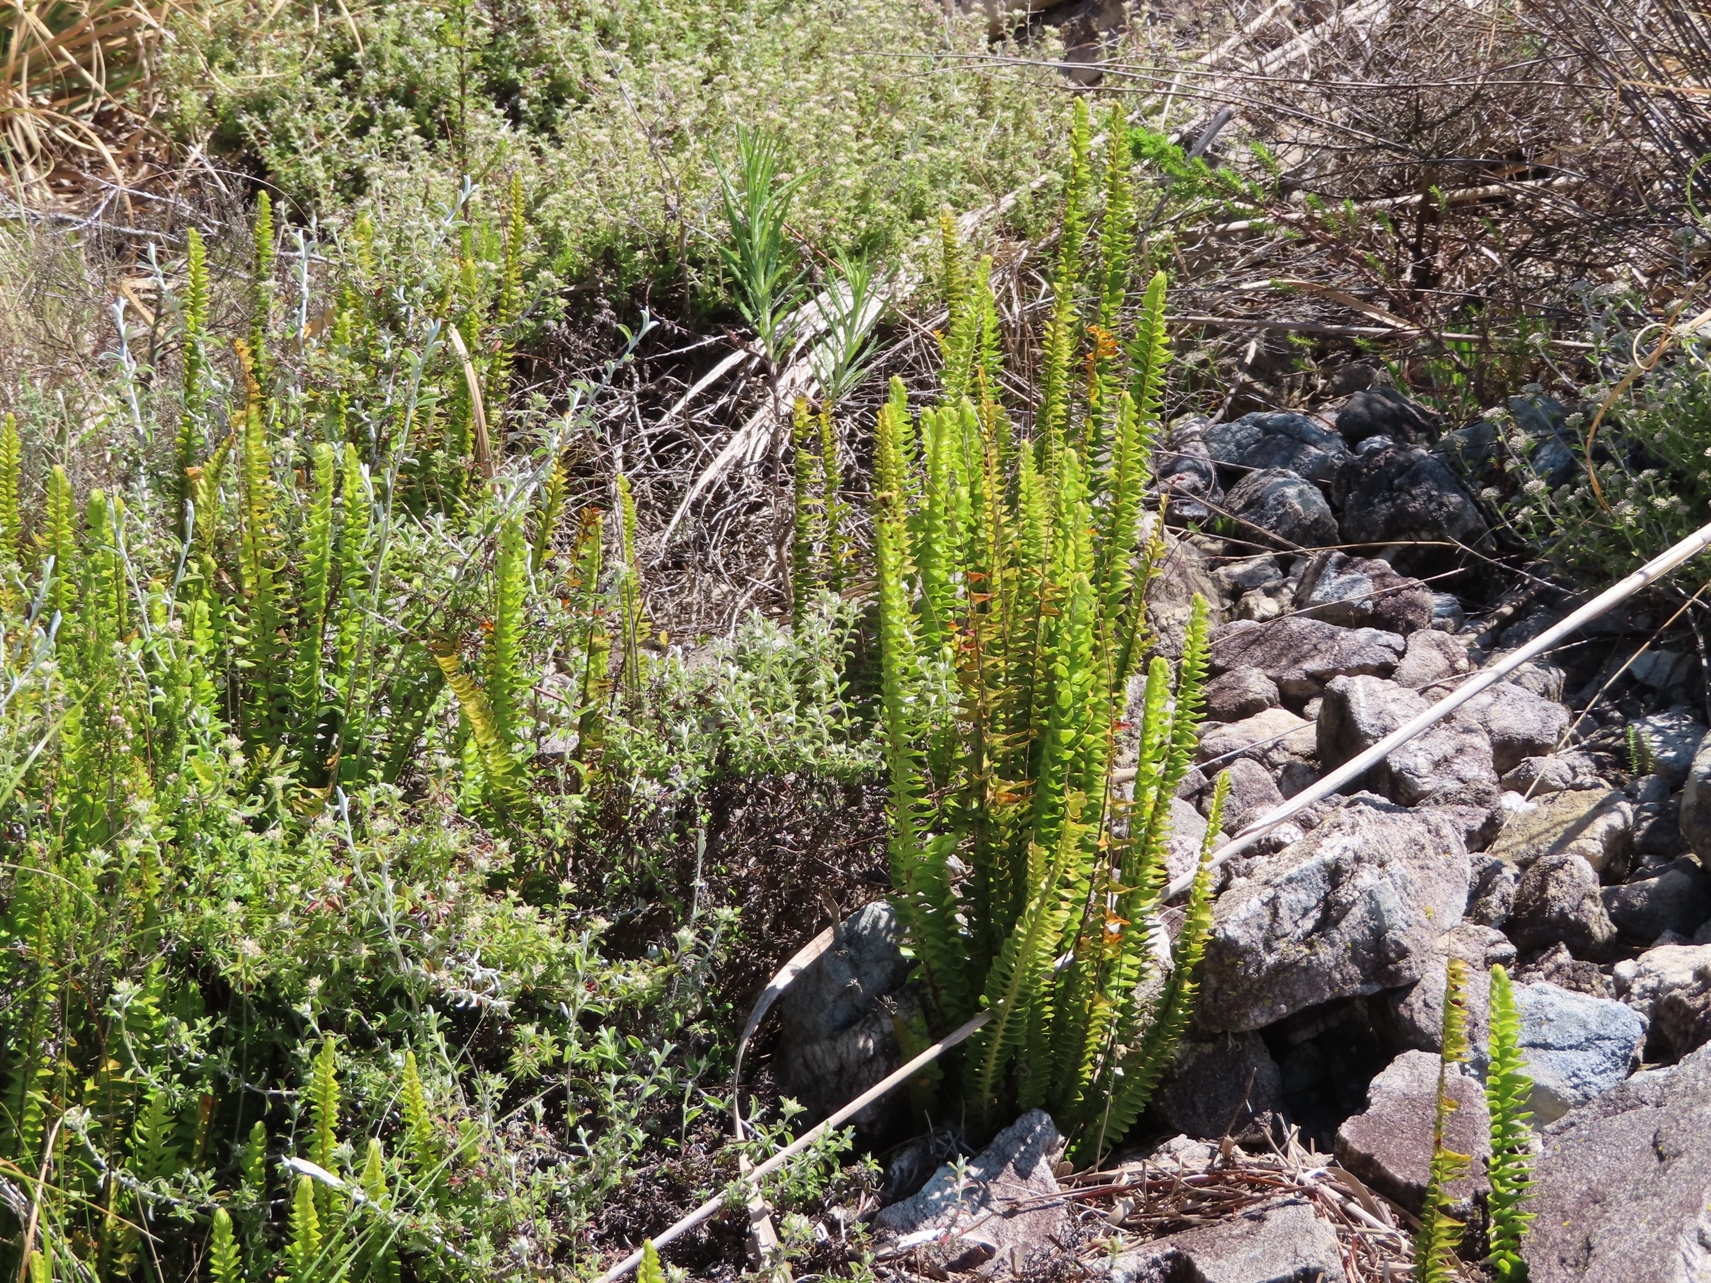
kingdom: Plantae
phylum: Tracheophyta
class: Polypodiopsida
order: Polypodiales
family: Nephrolepidaceae
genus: Nephrolepis
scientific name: Nephrolepis cordifolia
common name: Narrow swordfern
